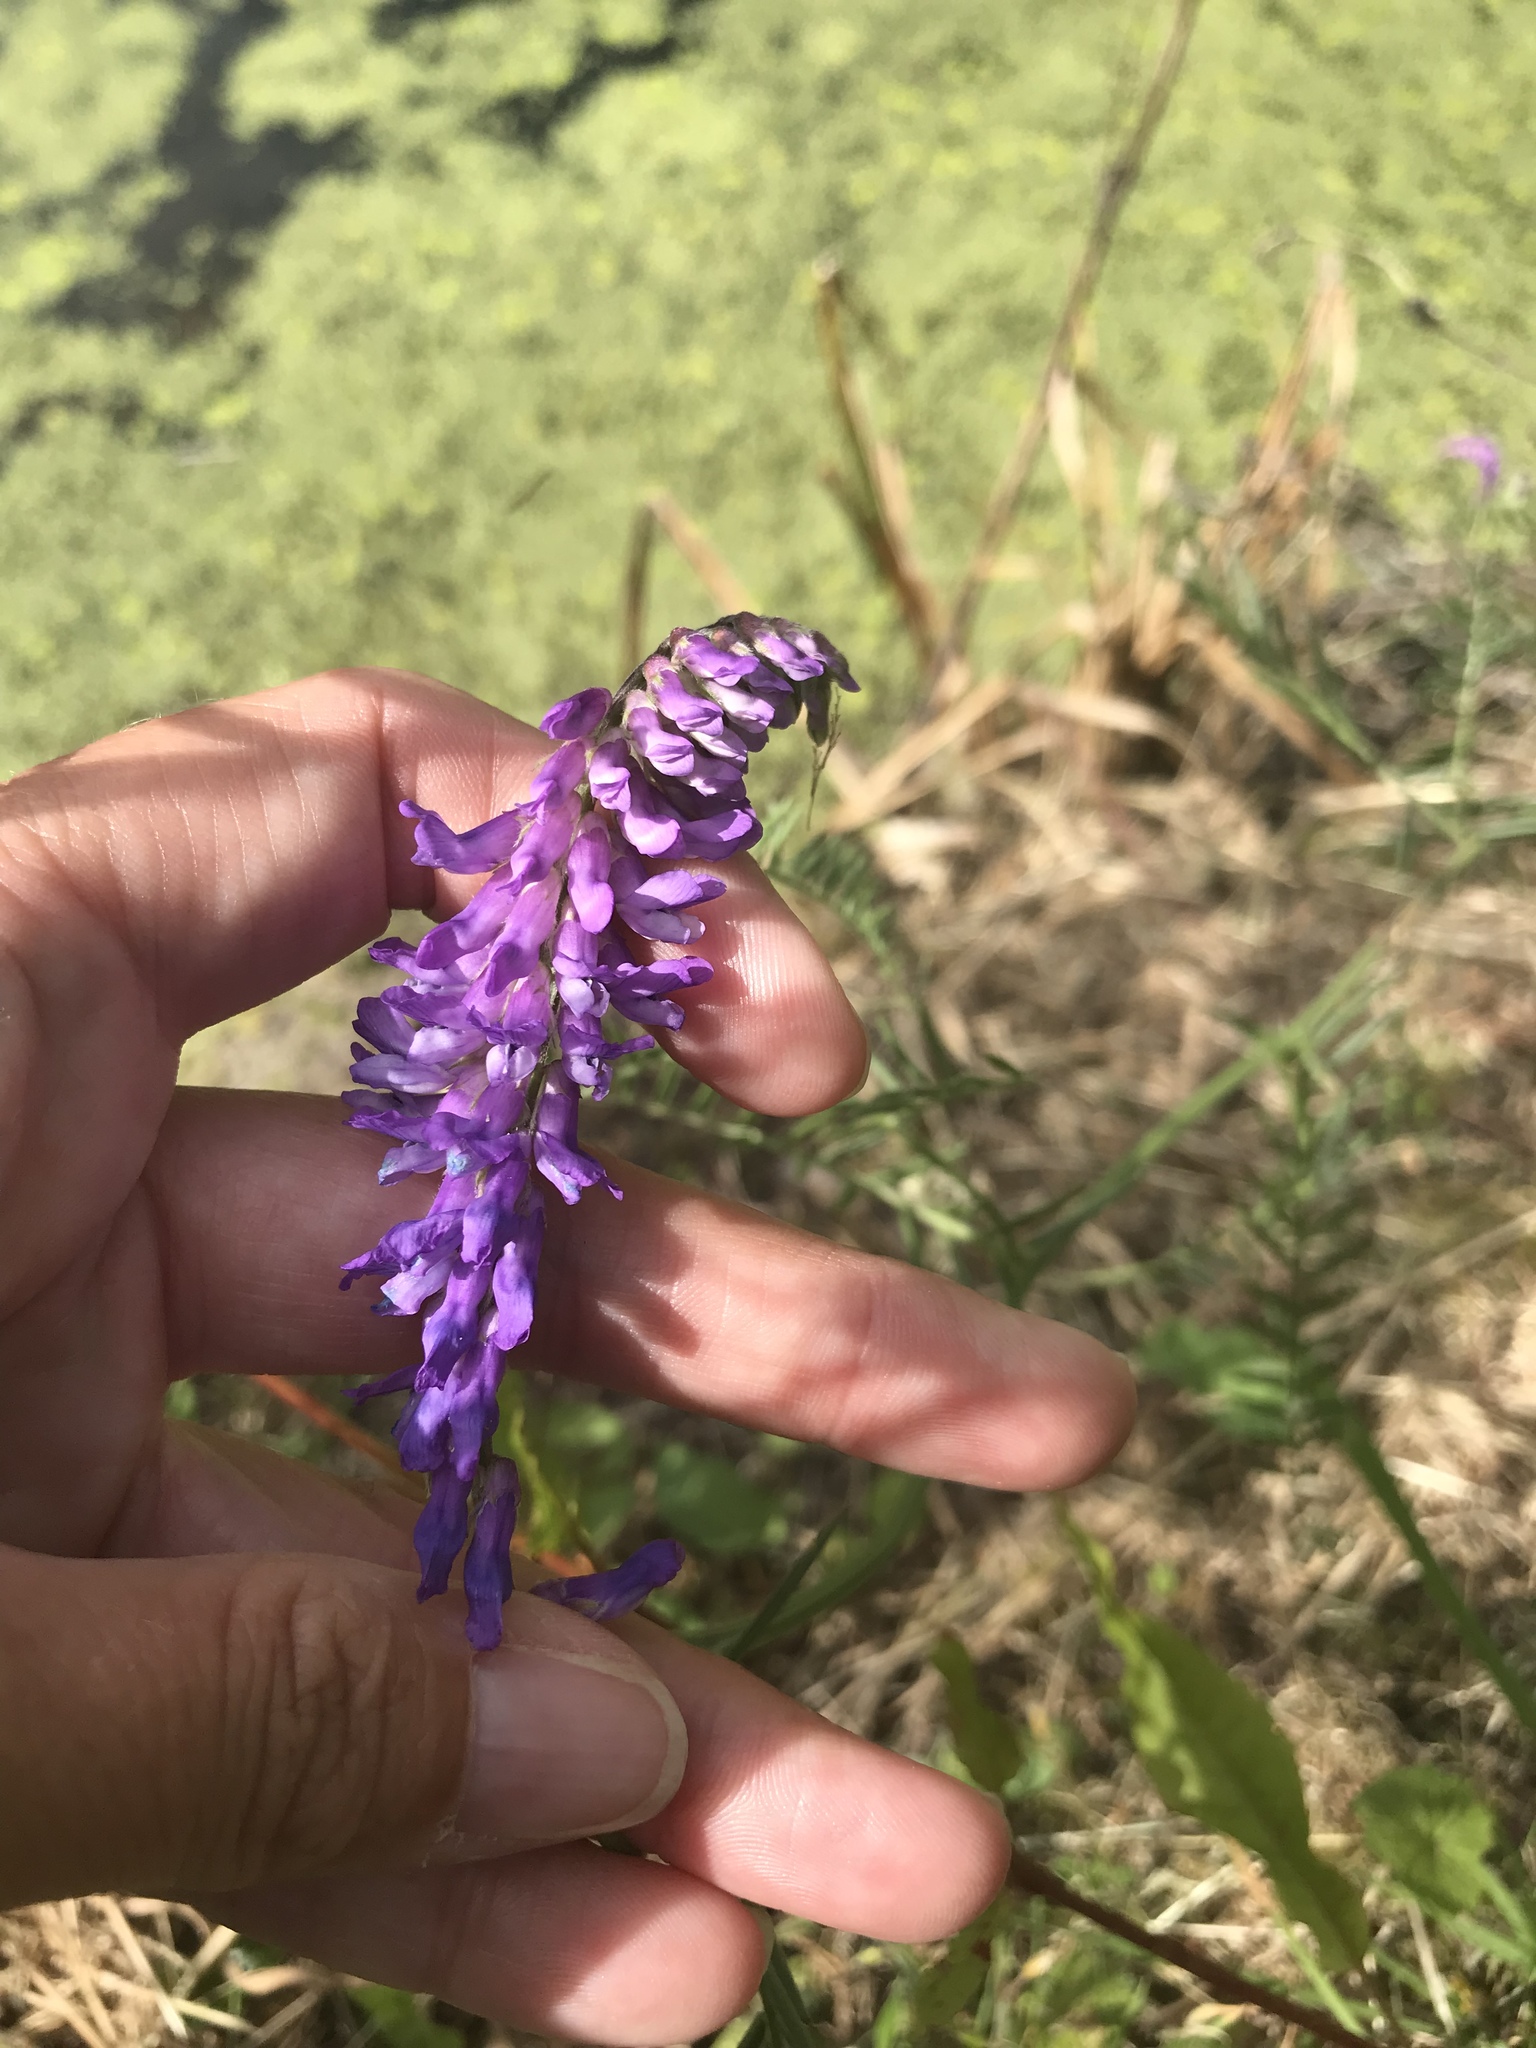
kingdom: Plantae
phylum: Tracheophyta
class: Magnoliopsida
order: Fabales
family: Fabaceae
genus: Vicia
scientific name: Vicia cracca
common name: Bird vetch
